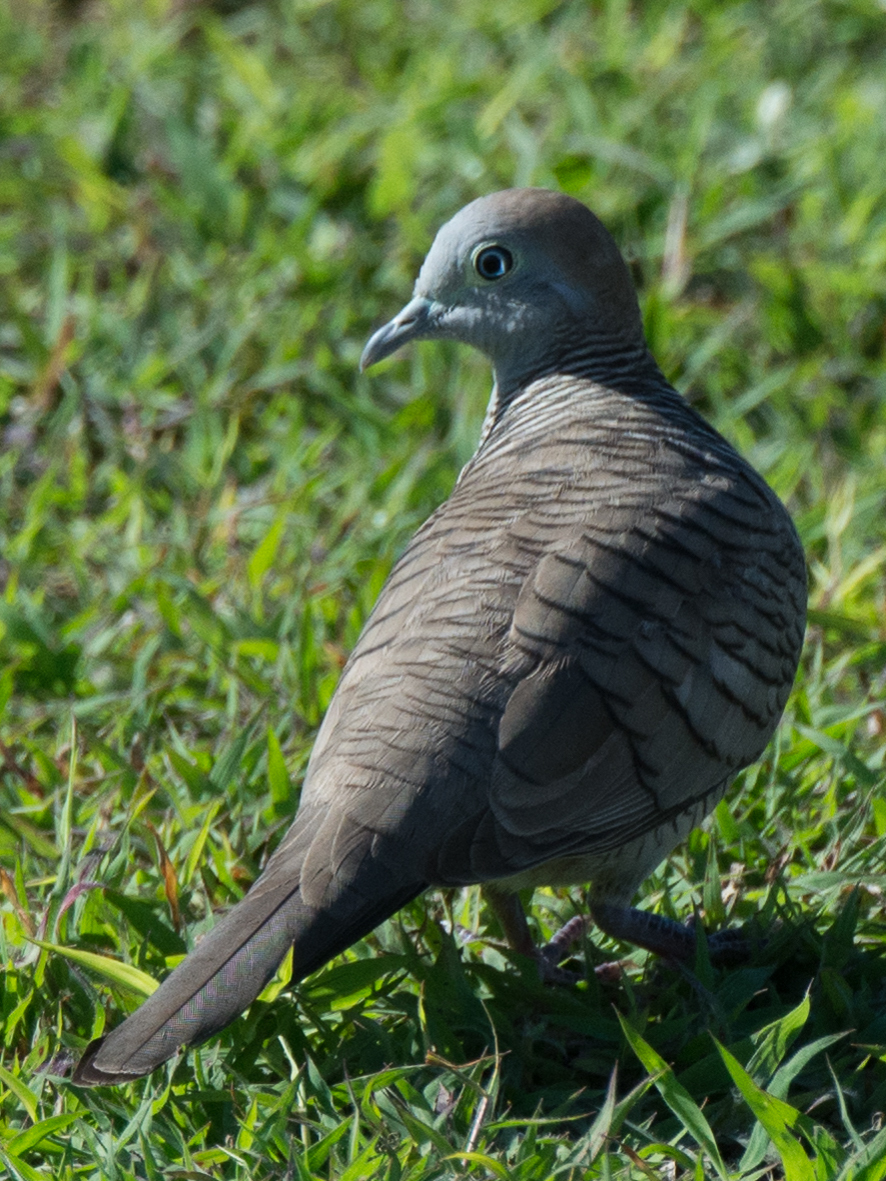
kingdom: Animalia
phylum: Chordata
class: Aves
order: Columbiformes
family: Columbidae
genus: Geopelia
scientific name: Geopelia striata
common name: Zebra dove
